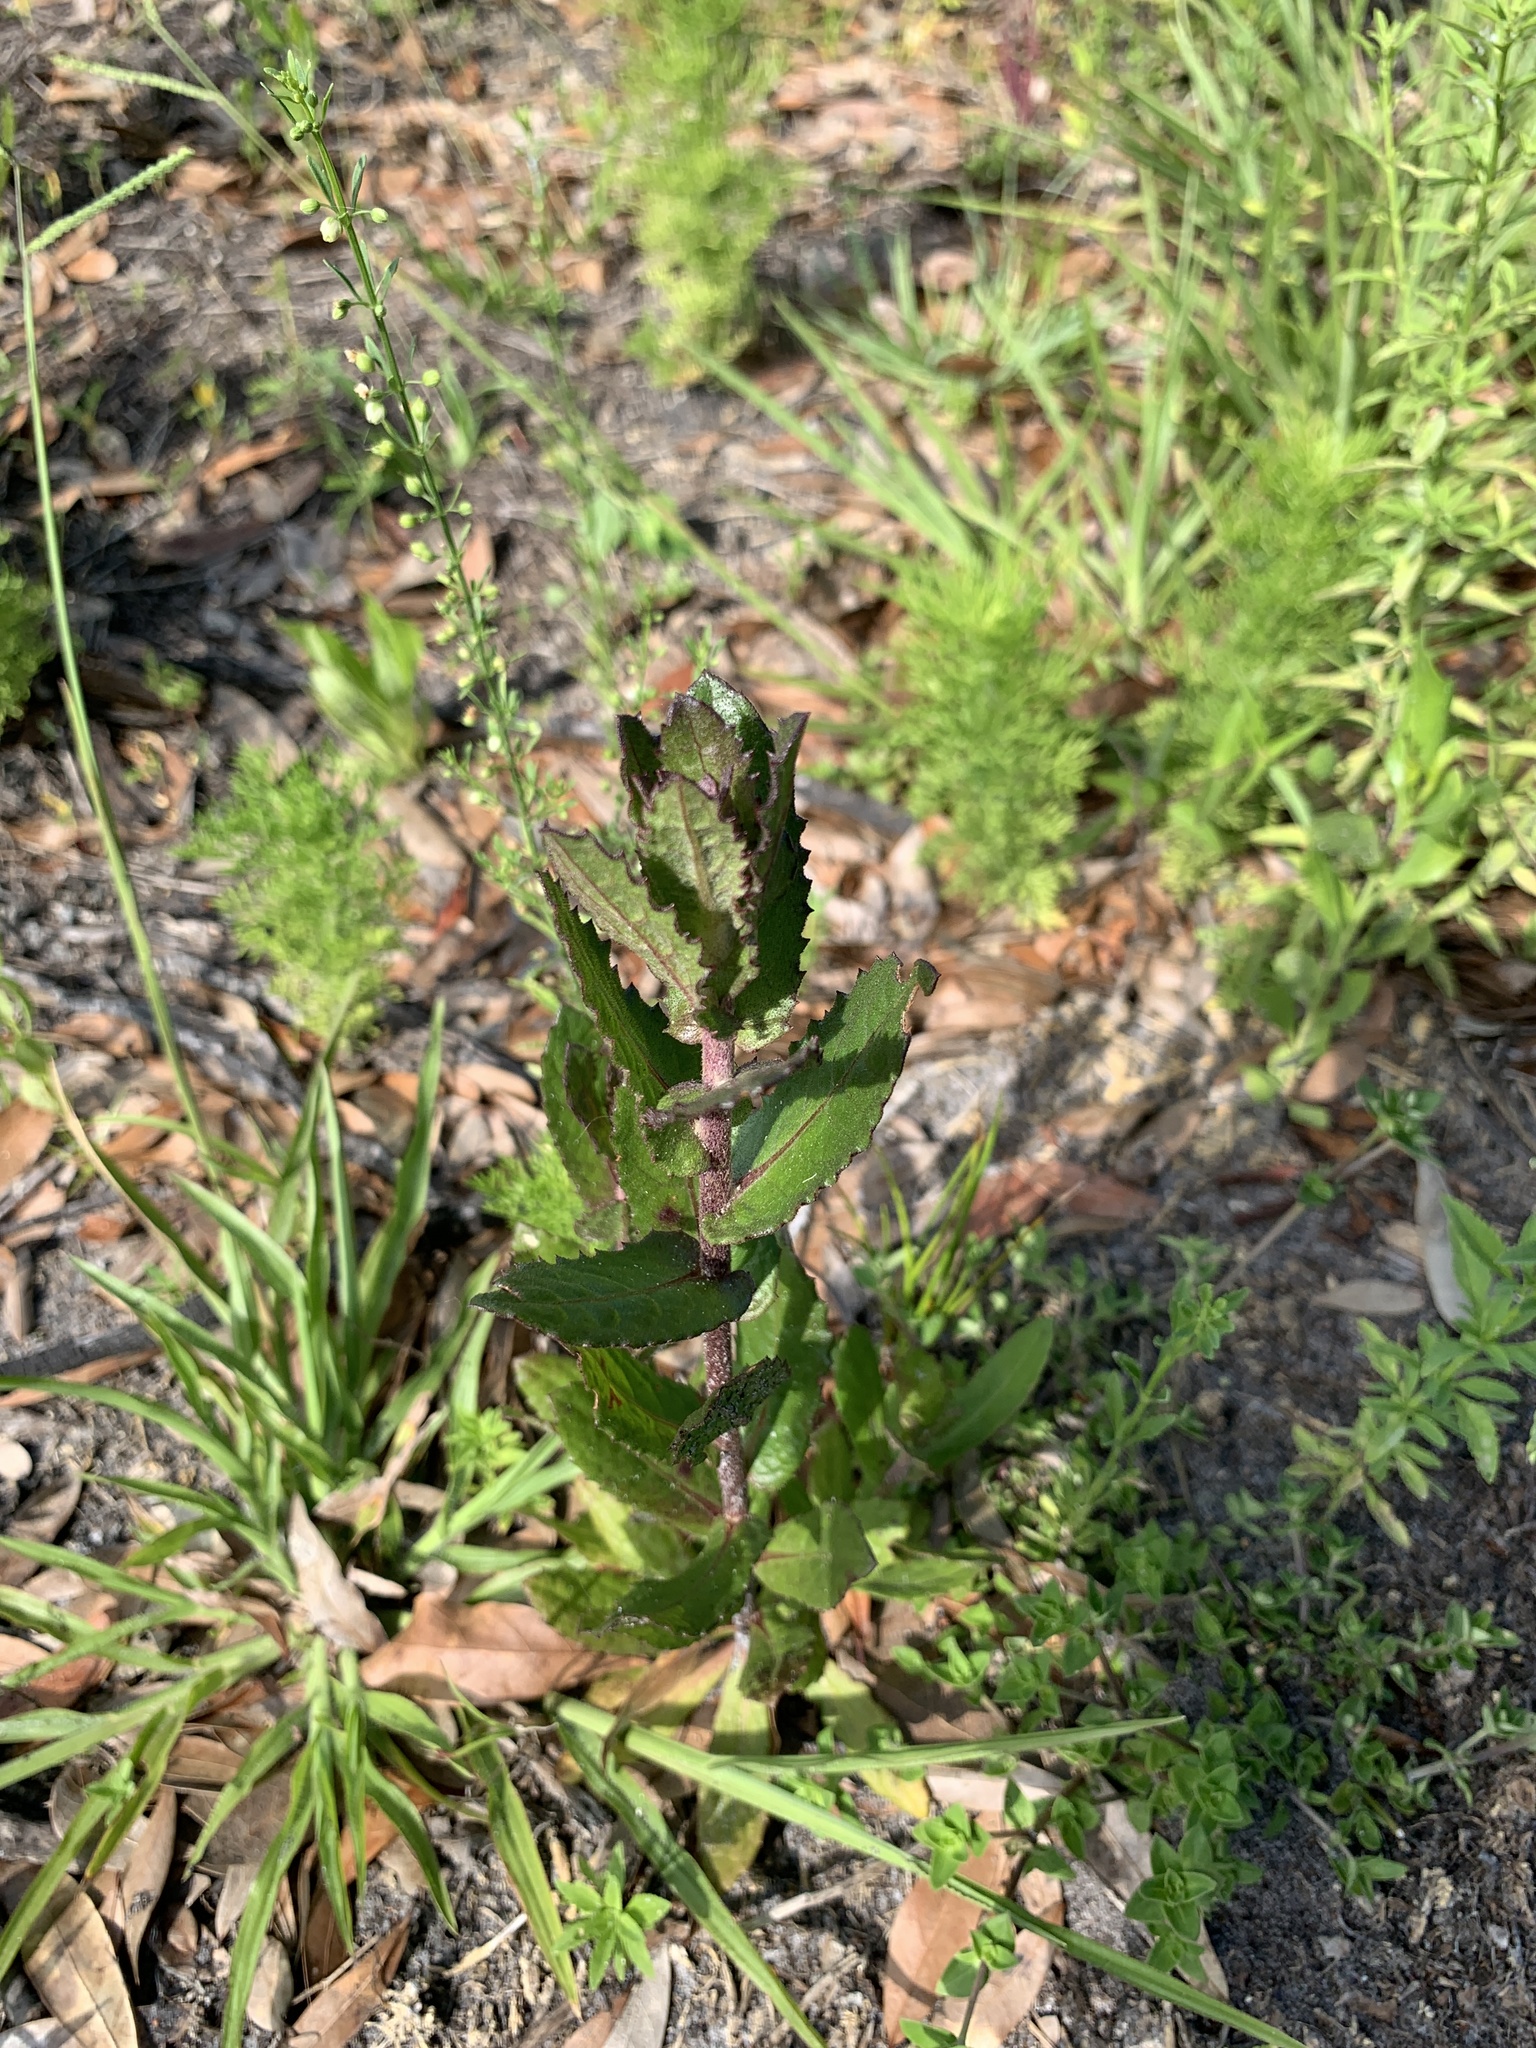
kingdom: Plantae
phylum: Tracheophyta
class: Magnoliopsida
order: Asterales
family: Asteraceae
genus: Pluchea
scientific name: Pluchea foetida
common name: Stinking camphorweed
